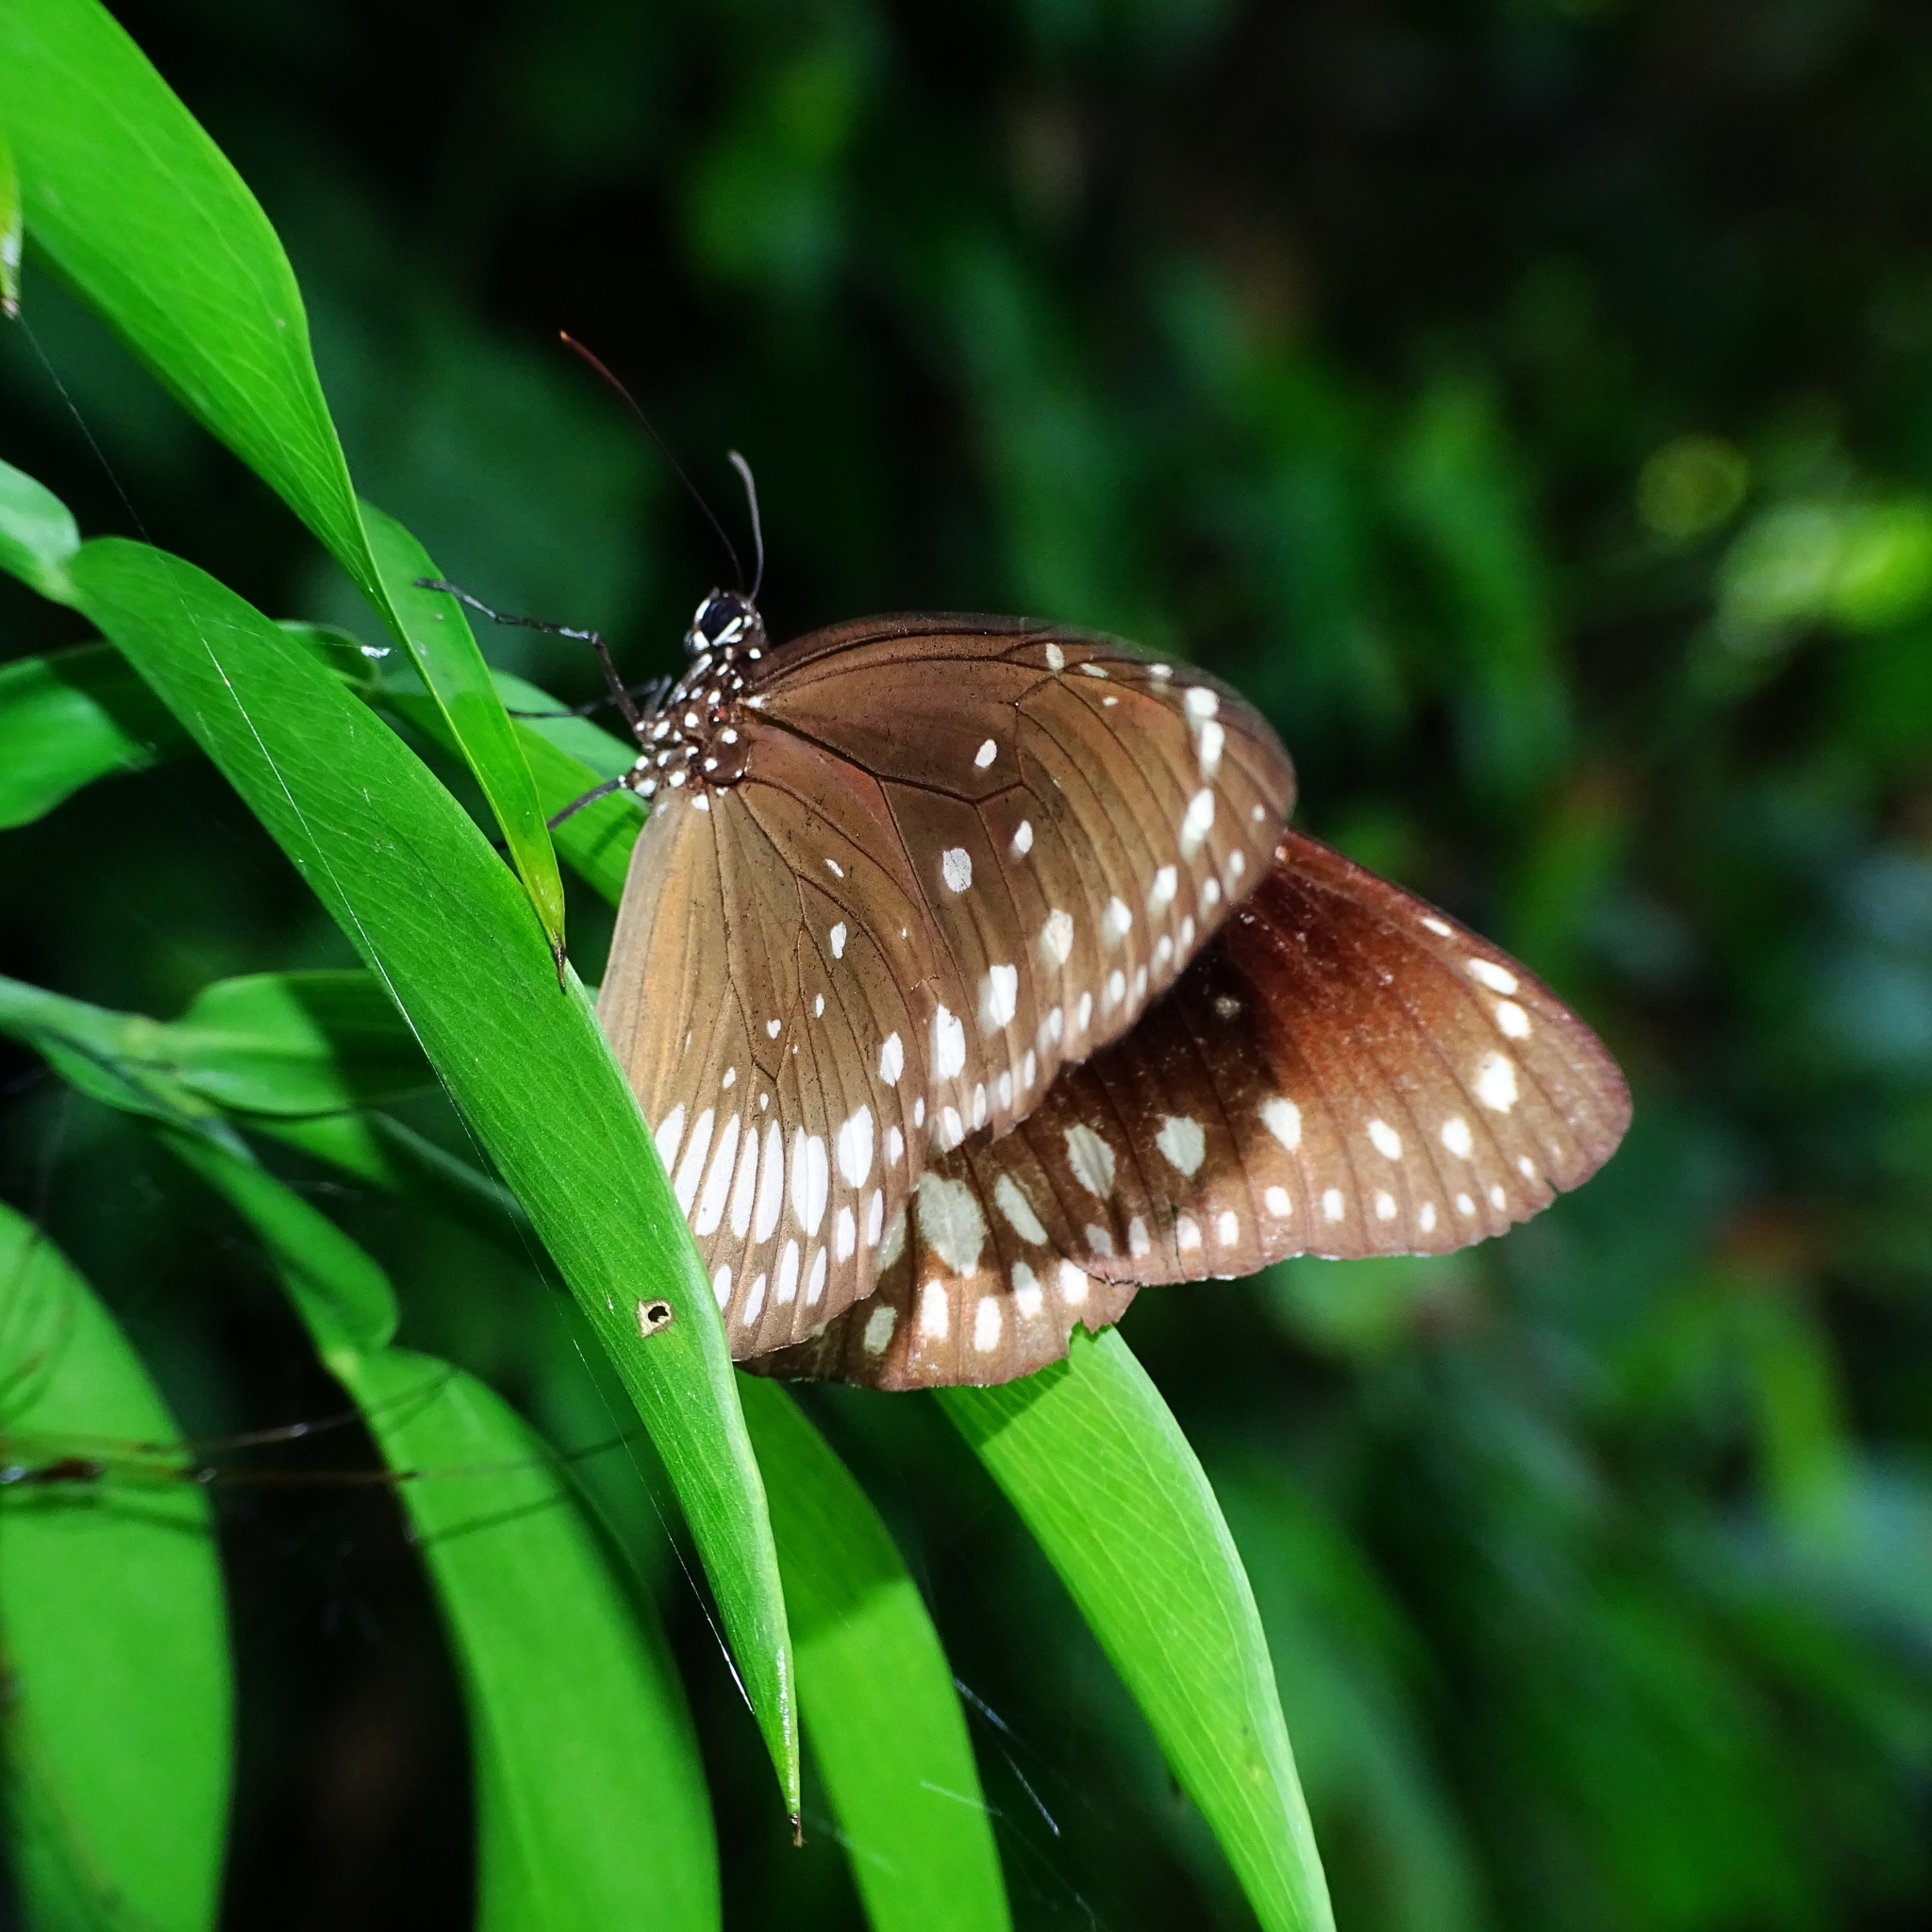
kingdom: Animalia
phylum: Arthropoda
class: Insecta
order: Lepidoptera
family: Nymphalidae
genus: Euploea
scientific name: Euploea core
